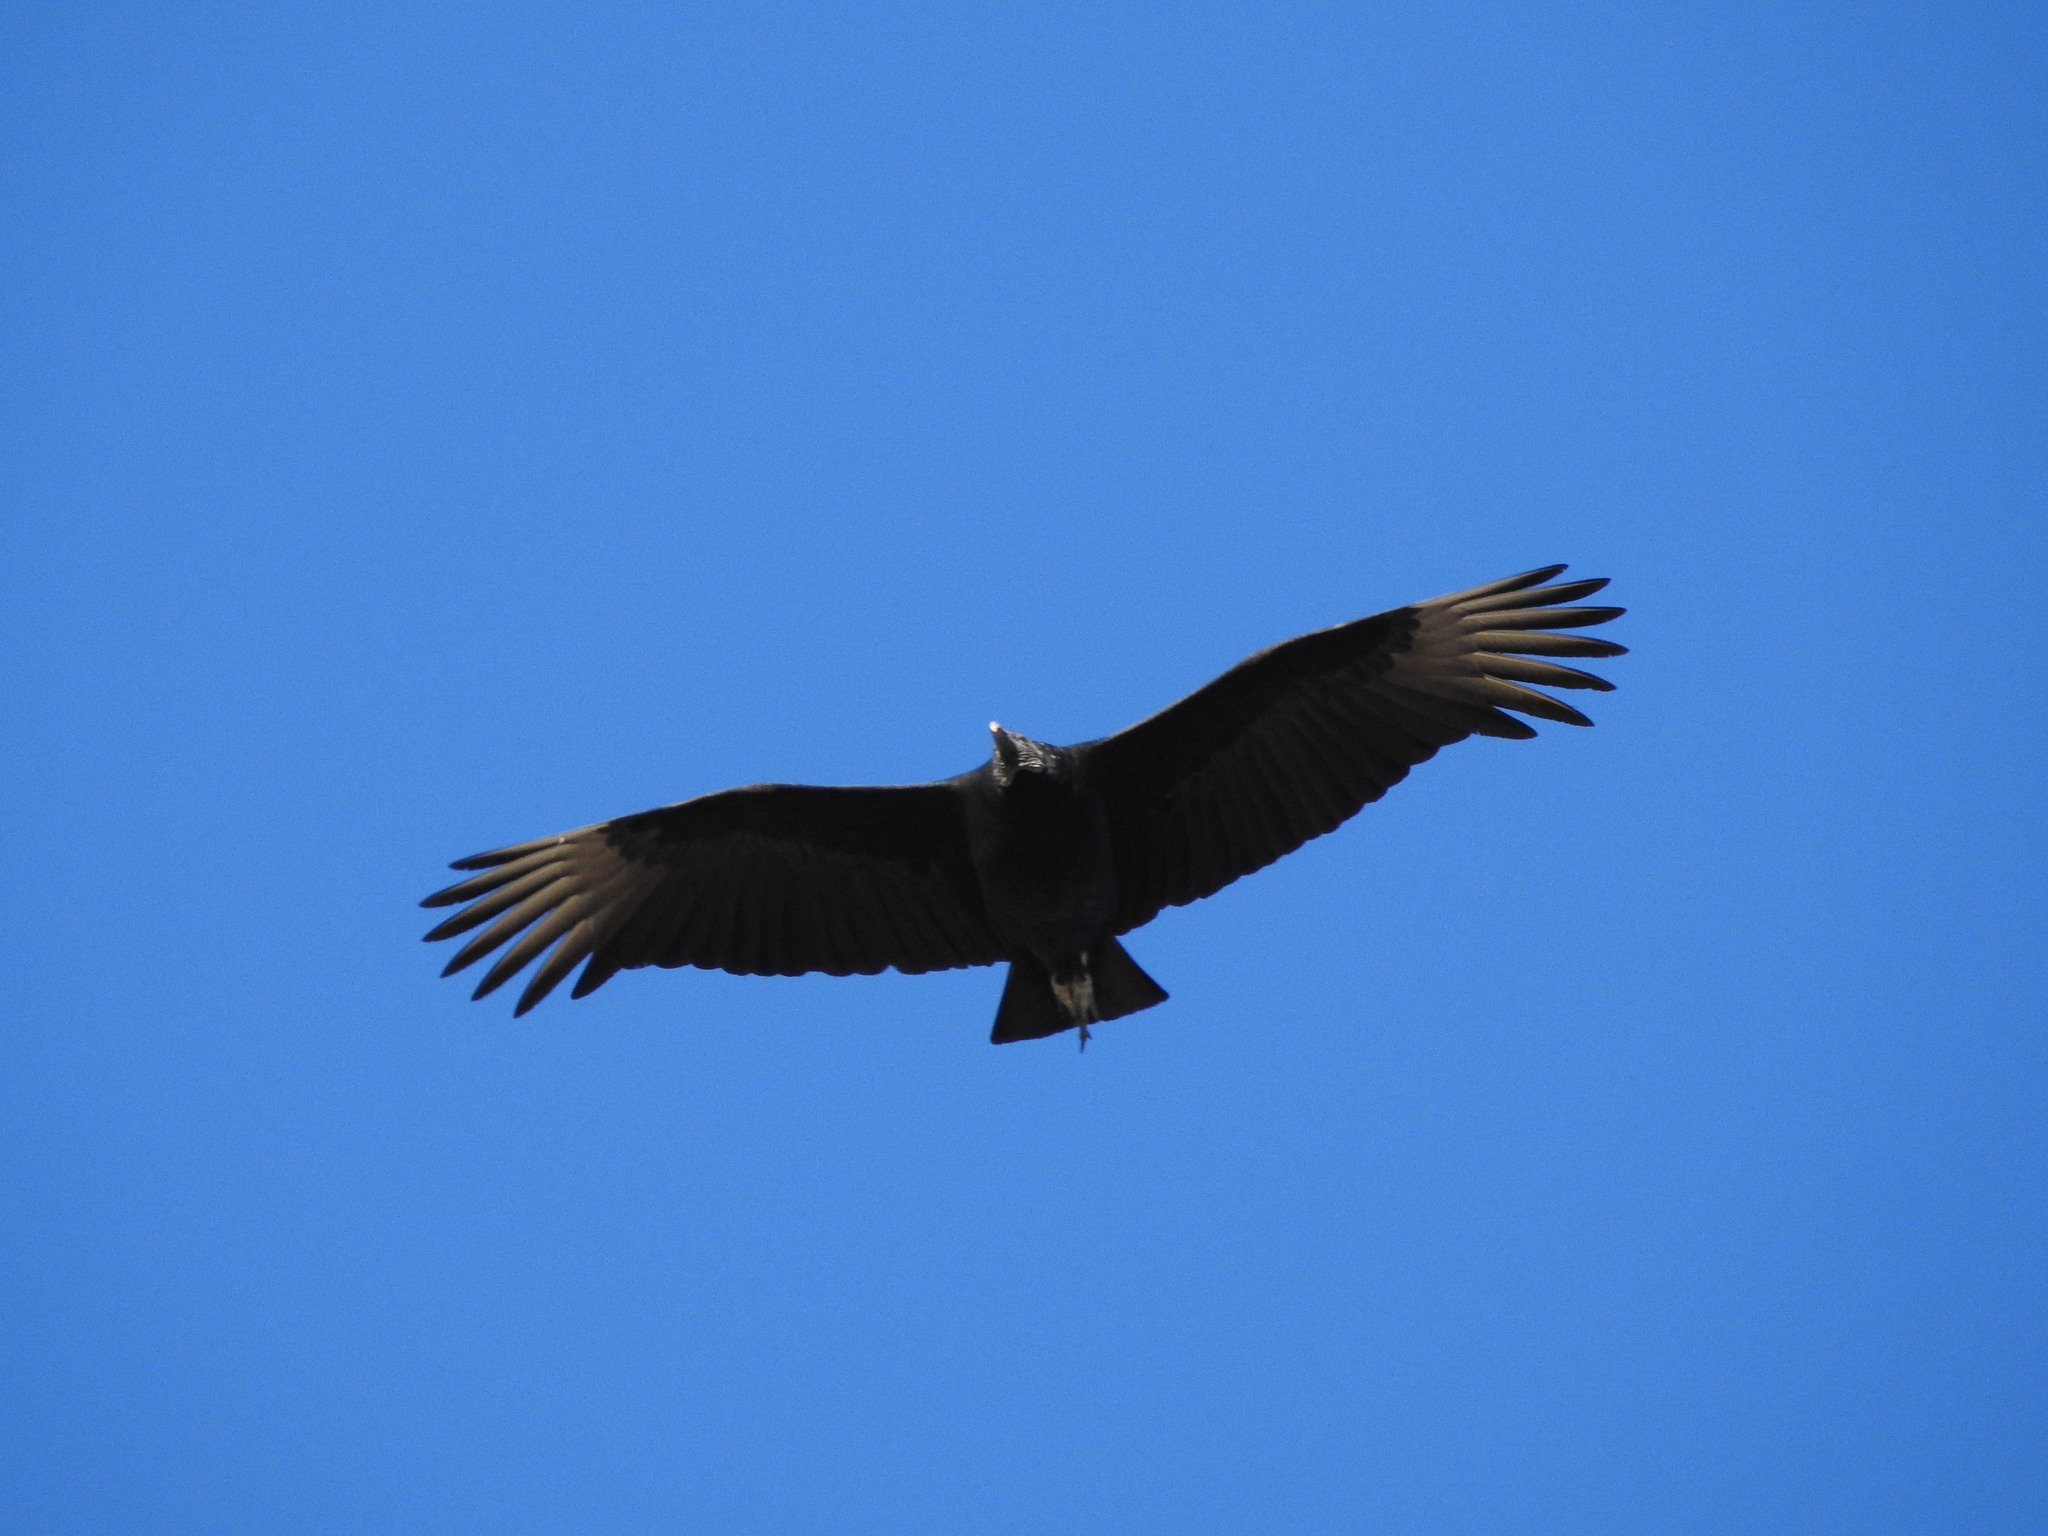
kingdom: Animalia
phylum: Chordata
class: Aves
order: Accipitriformes
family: Cathartidae
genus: Coragyps
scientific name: Coragyps atratus
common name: Black vulture
